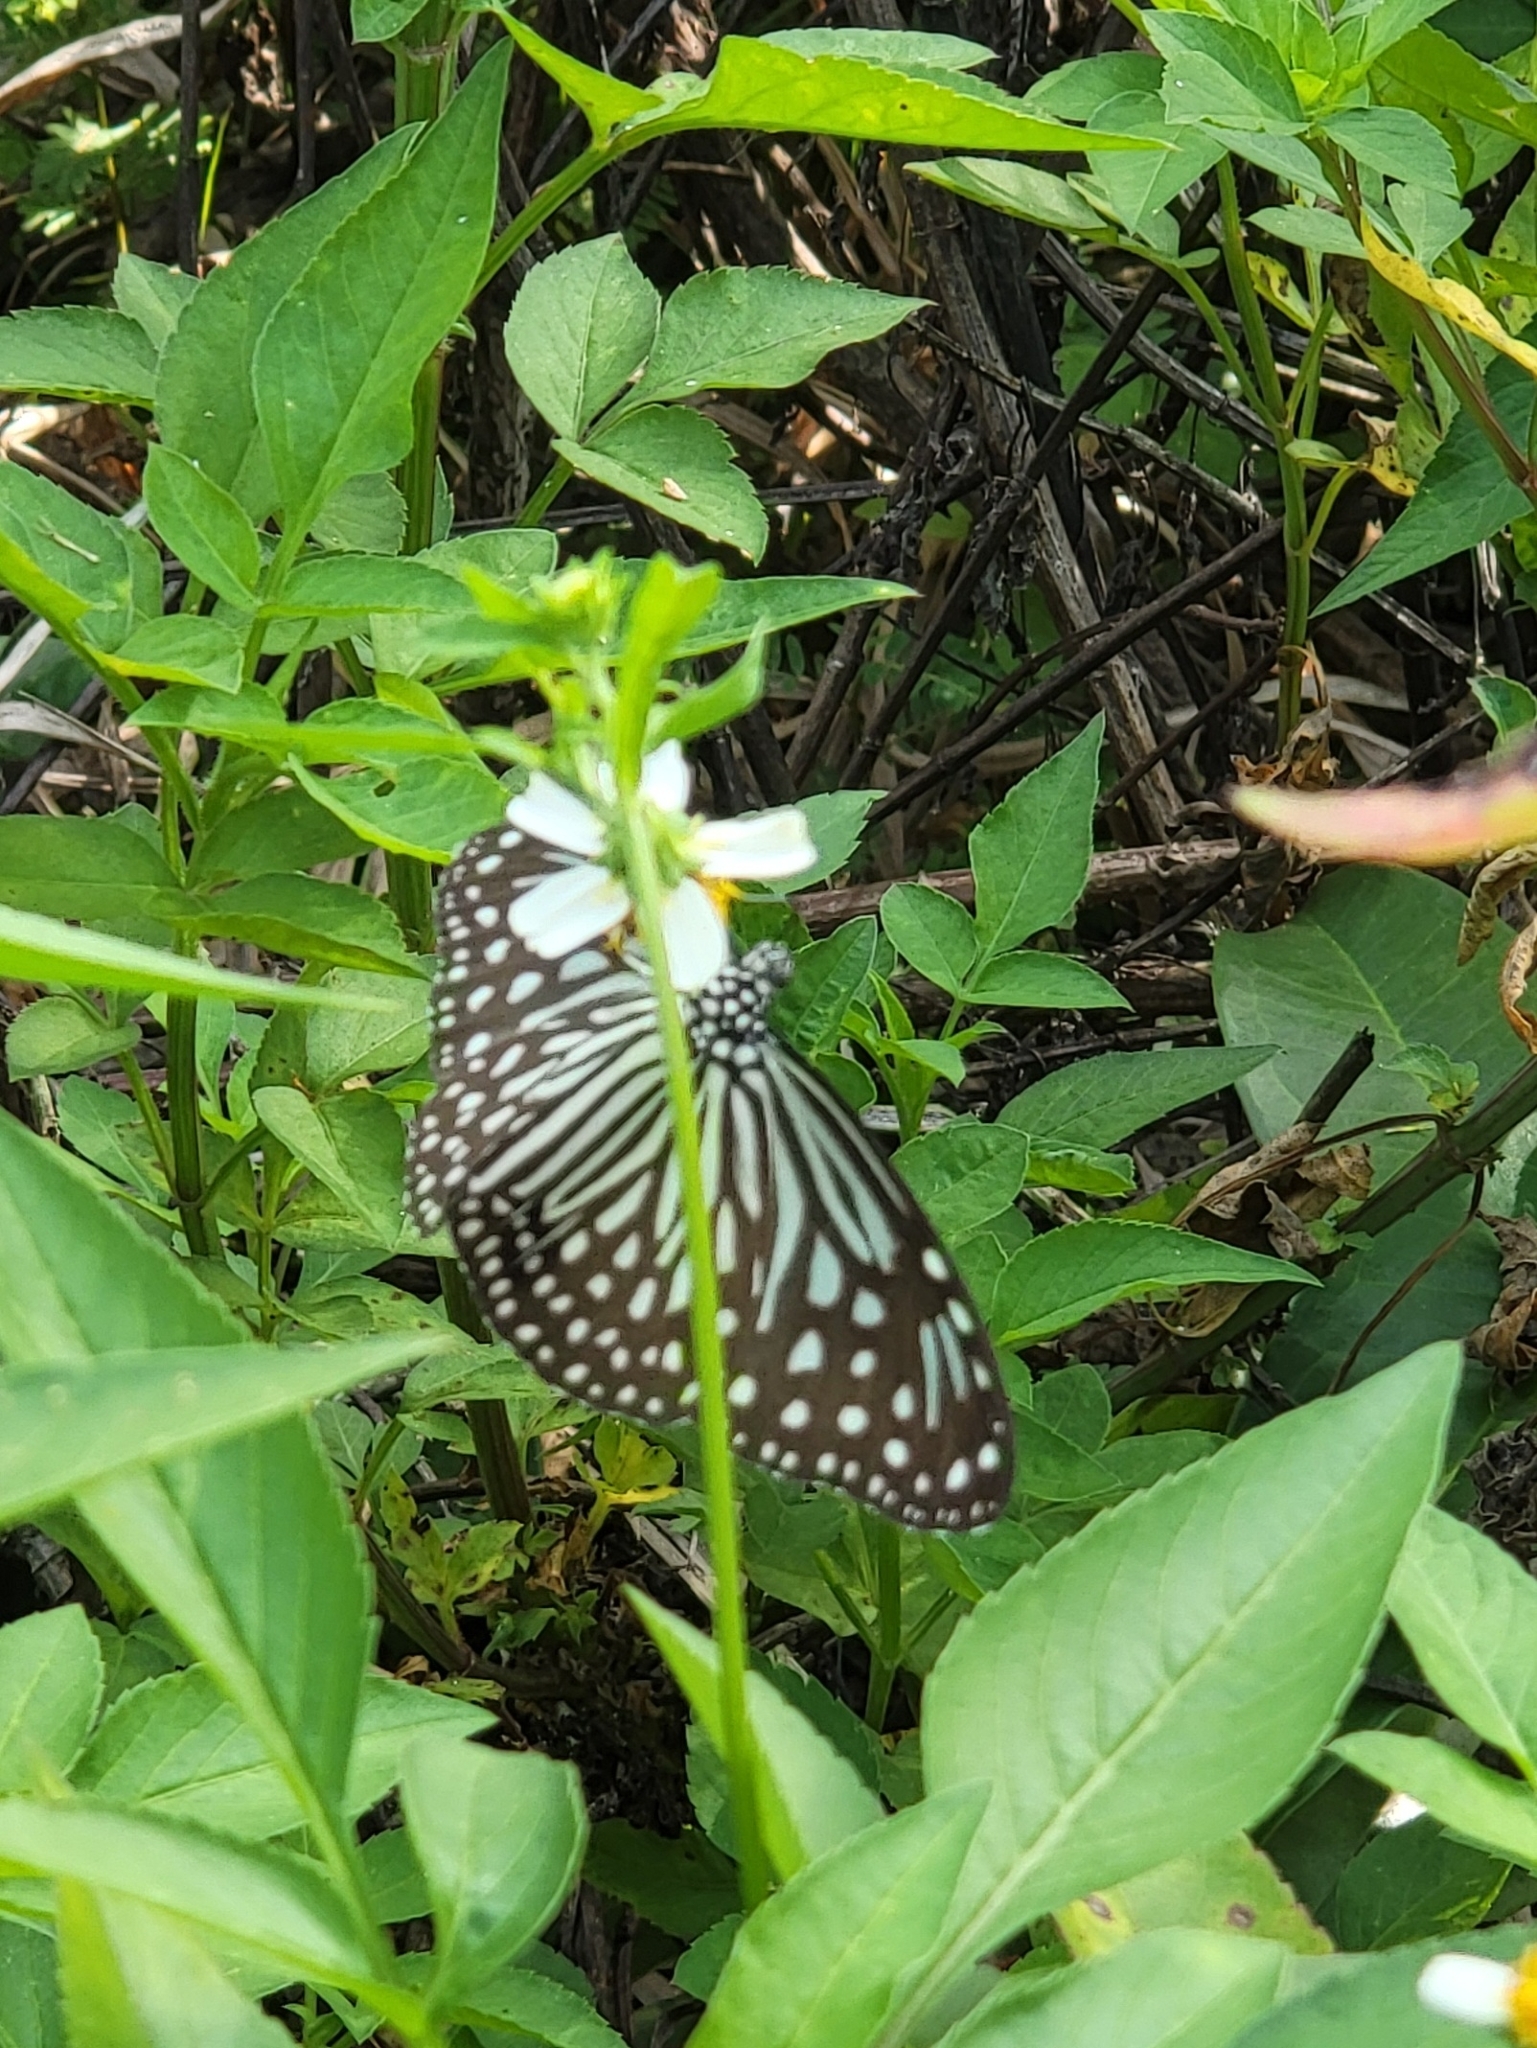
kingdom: Animalia
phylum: Arthropoda
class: Insecta
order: Lepidoptera
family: Nymphalidae
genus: Parantica
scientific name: Parantica agleoides
